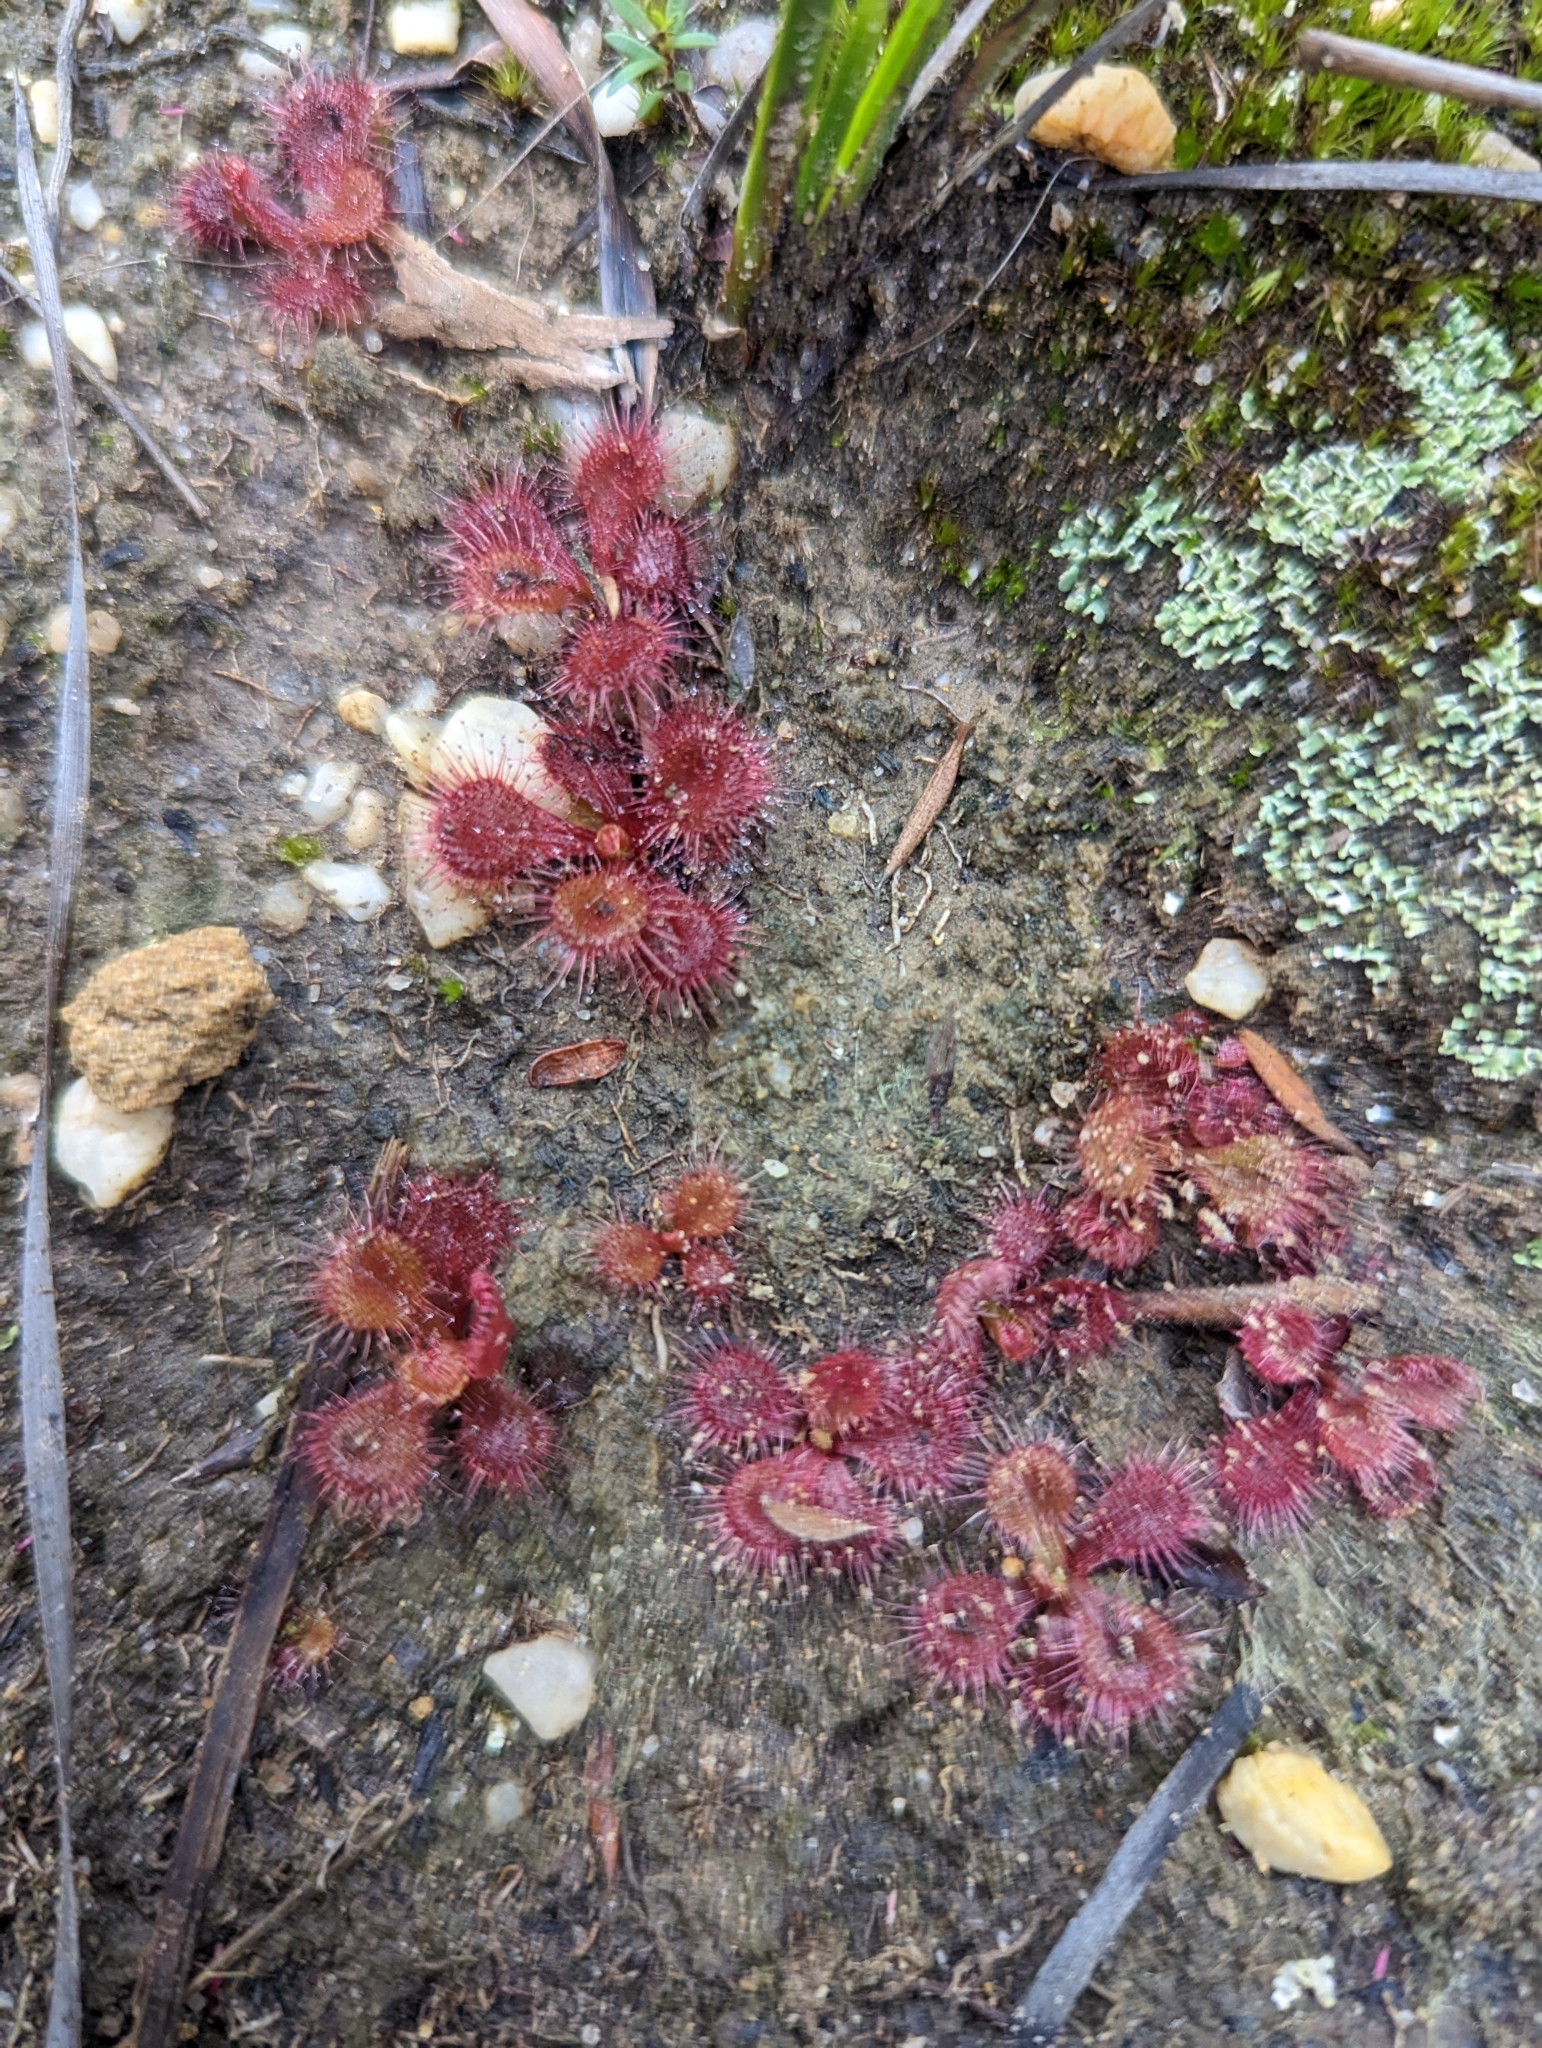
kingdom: Plantae
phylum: Tracheophyta
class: Magnoliopsida
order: Caryophyllales
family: Droseraceae
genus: Drosera
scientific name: Drosera aberrans
